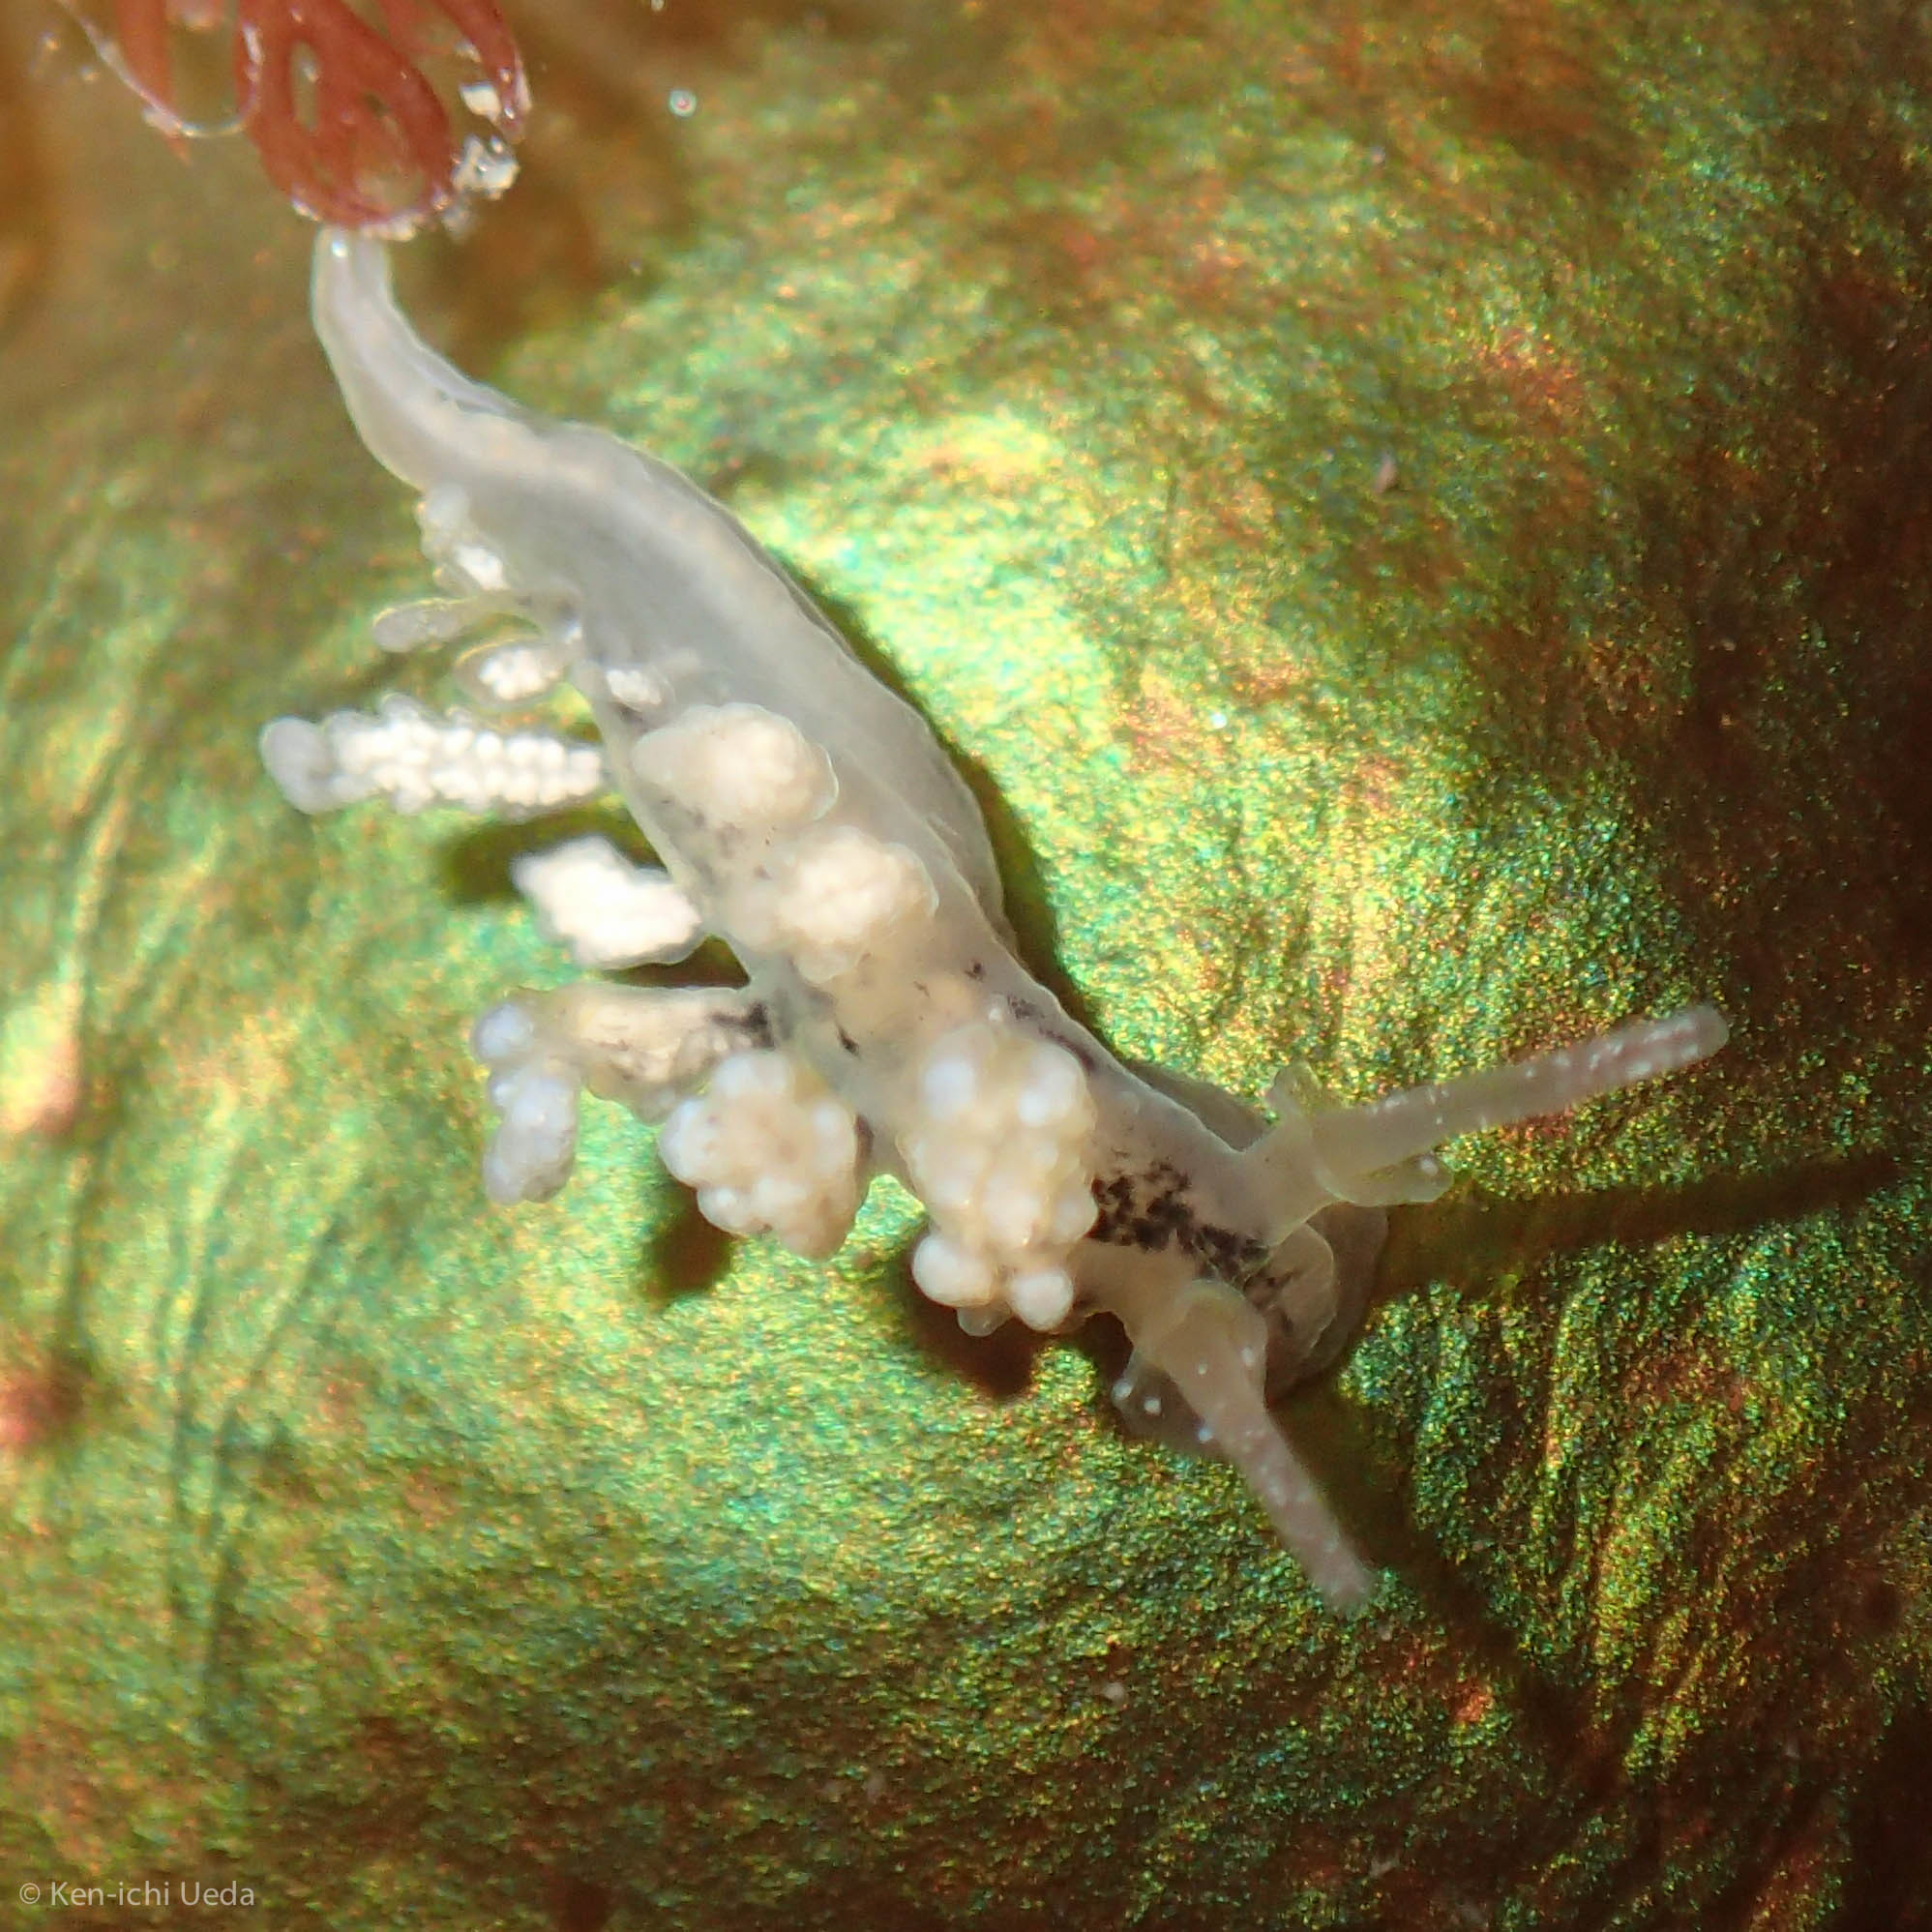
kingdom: Animalia
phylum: Mollusca
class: Gastropoda
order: Nudibranchia
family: Dotidae
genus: Doto
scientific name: Doto kya
